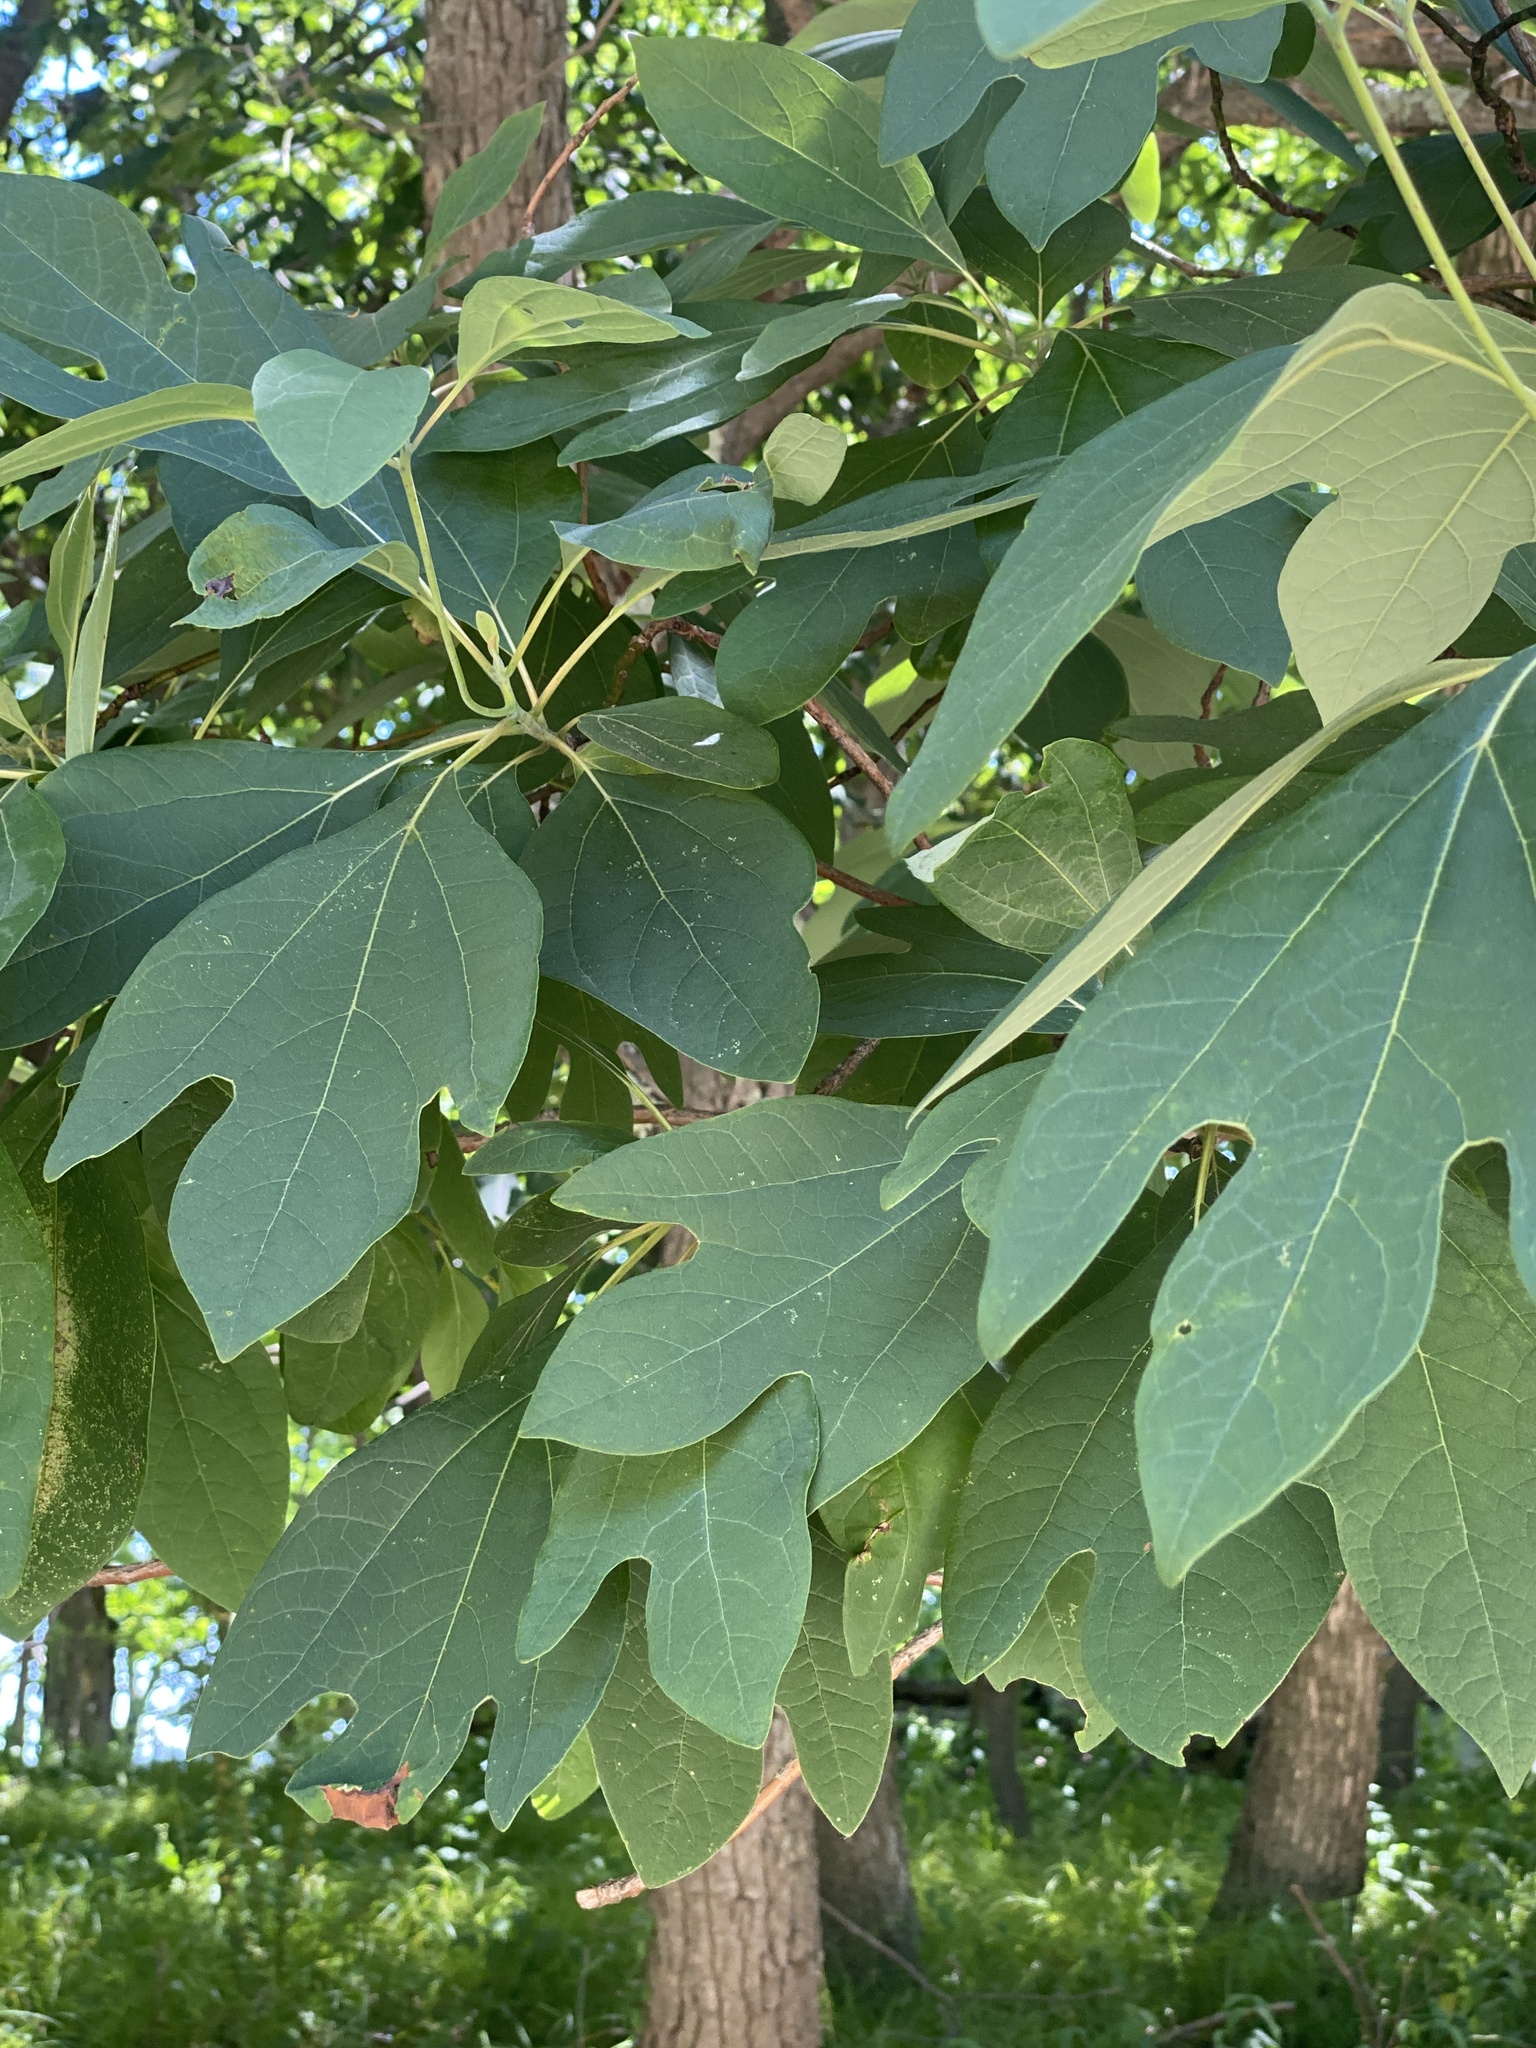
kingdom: Plantae
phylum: Tracheophyta
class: Magnoliopsida
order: Laurales
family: Lauraceae
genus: Sassafras
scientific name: Sassafras albidum
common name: Sassafras
